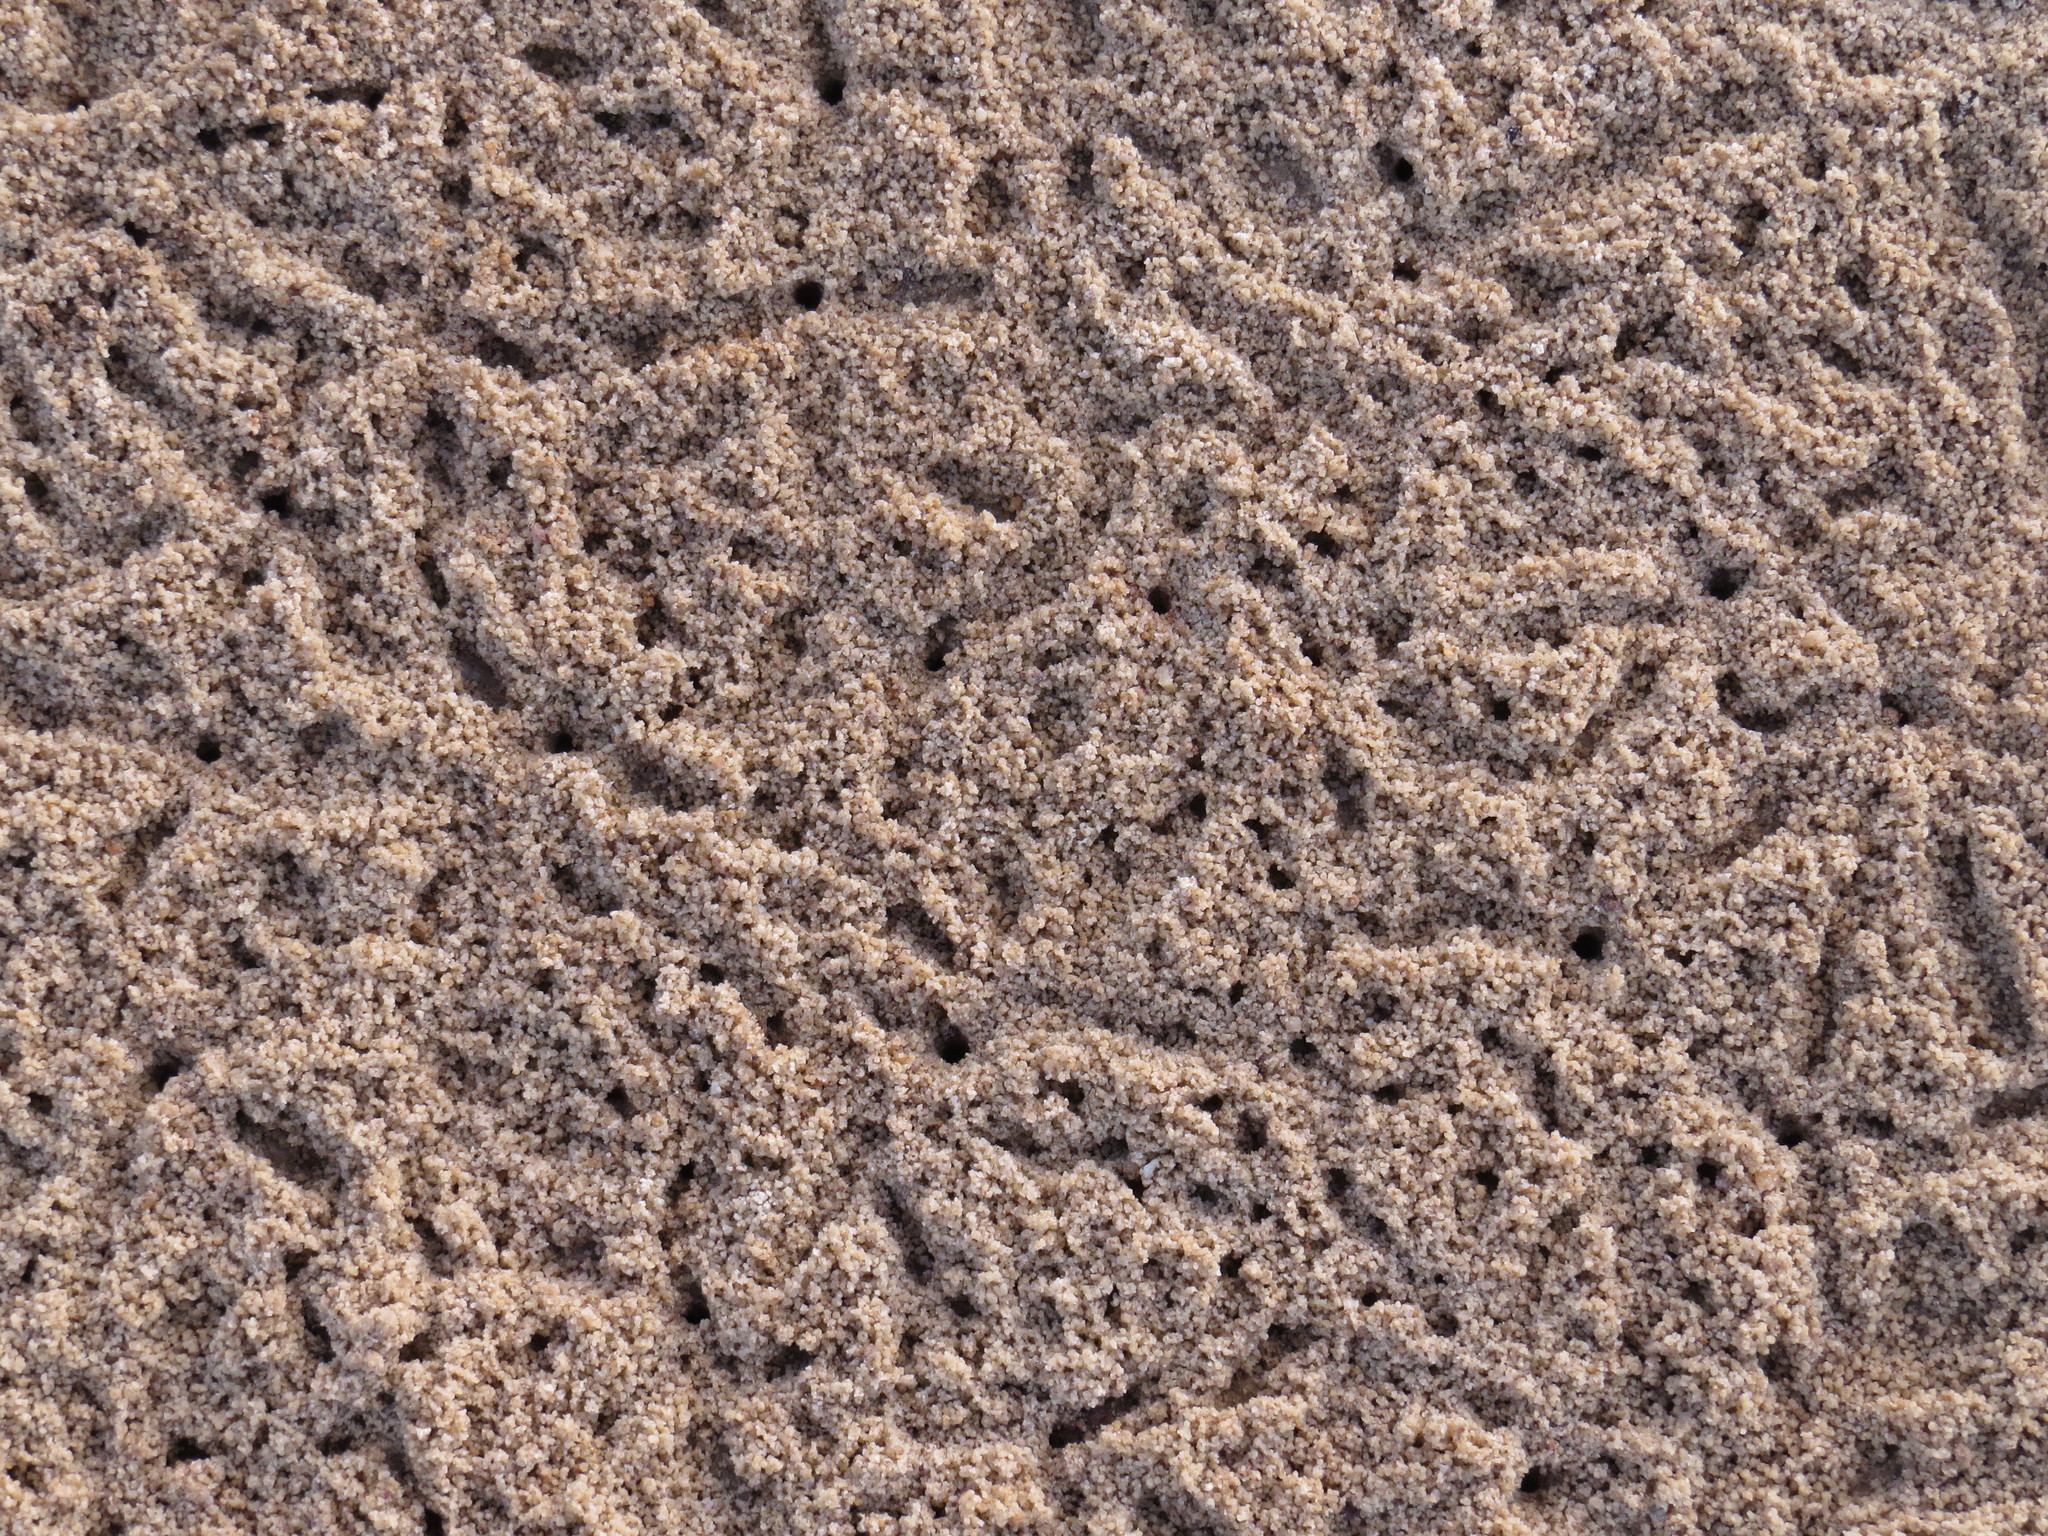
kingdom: Animalia
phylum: Arthropoda
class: Malacostraca
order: Decapoda
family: Ocypodidae
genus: Austruca
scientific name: Austruca mjobergi
